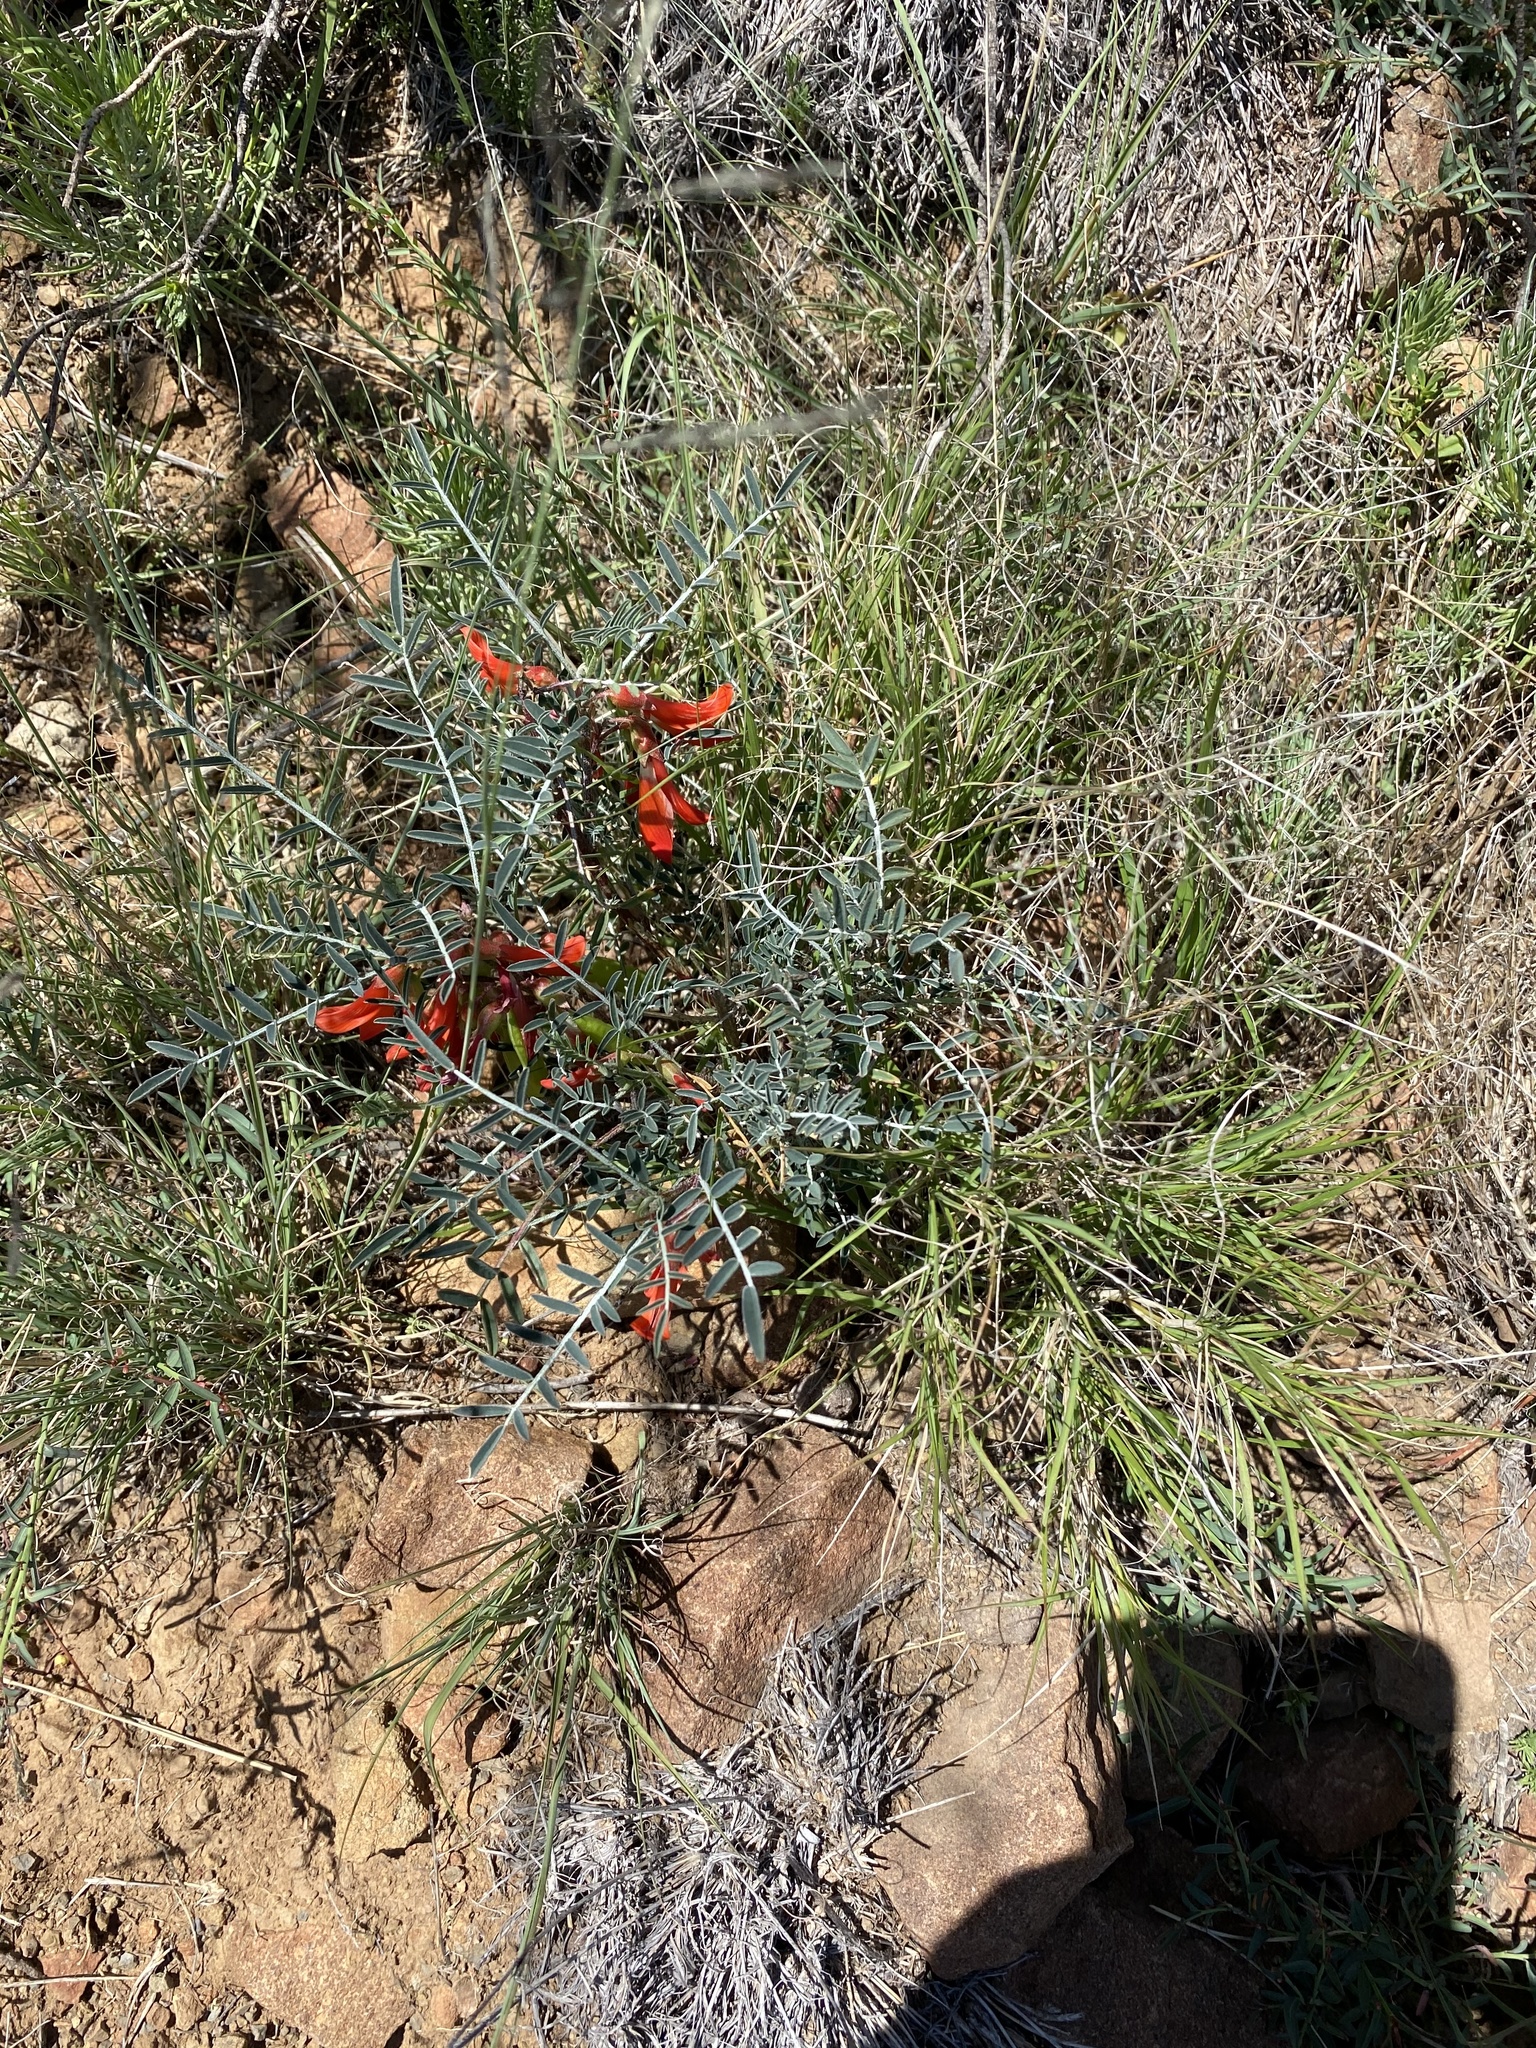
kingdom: Plantae
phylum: Tracheophyta
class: Magnoliopsida
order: Fabales
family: Fabaceae
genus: Lessertia
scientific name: Lessertia frutescens
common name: Balloon-pea
